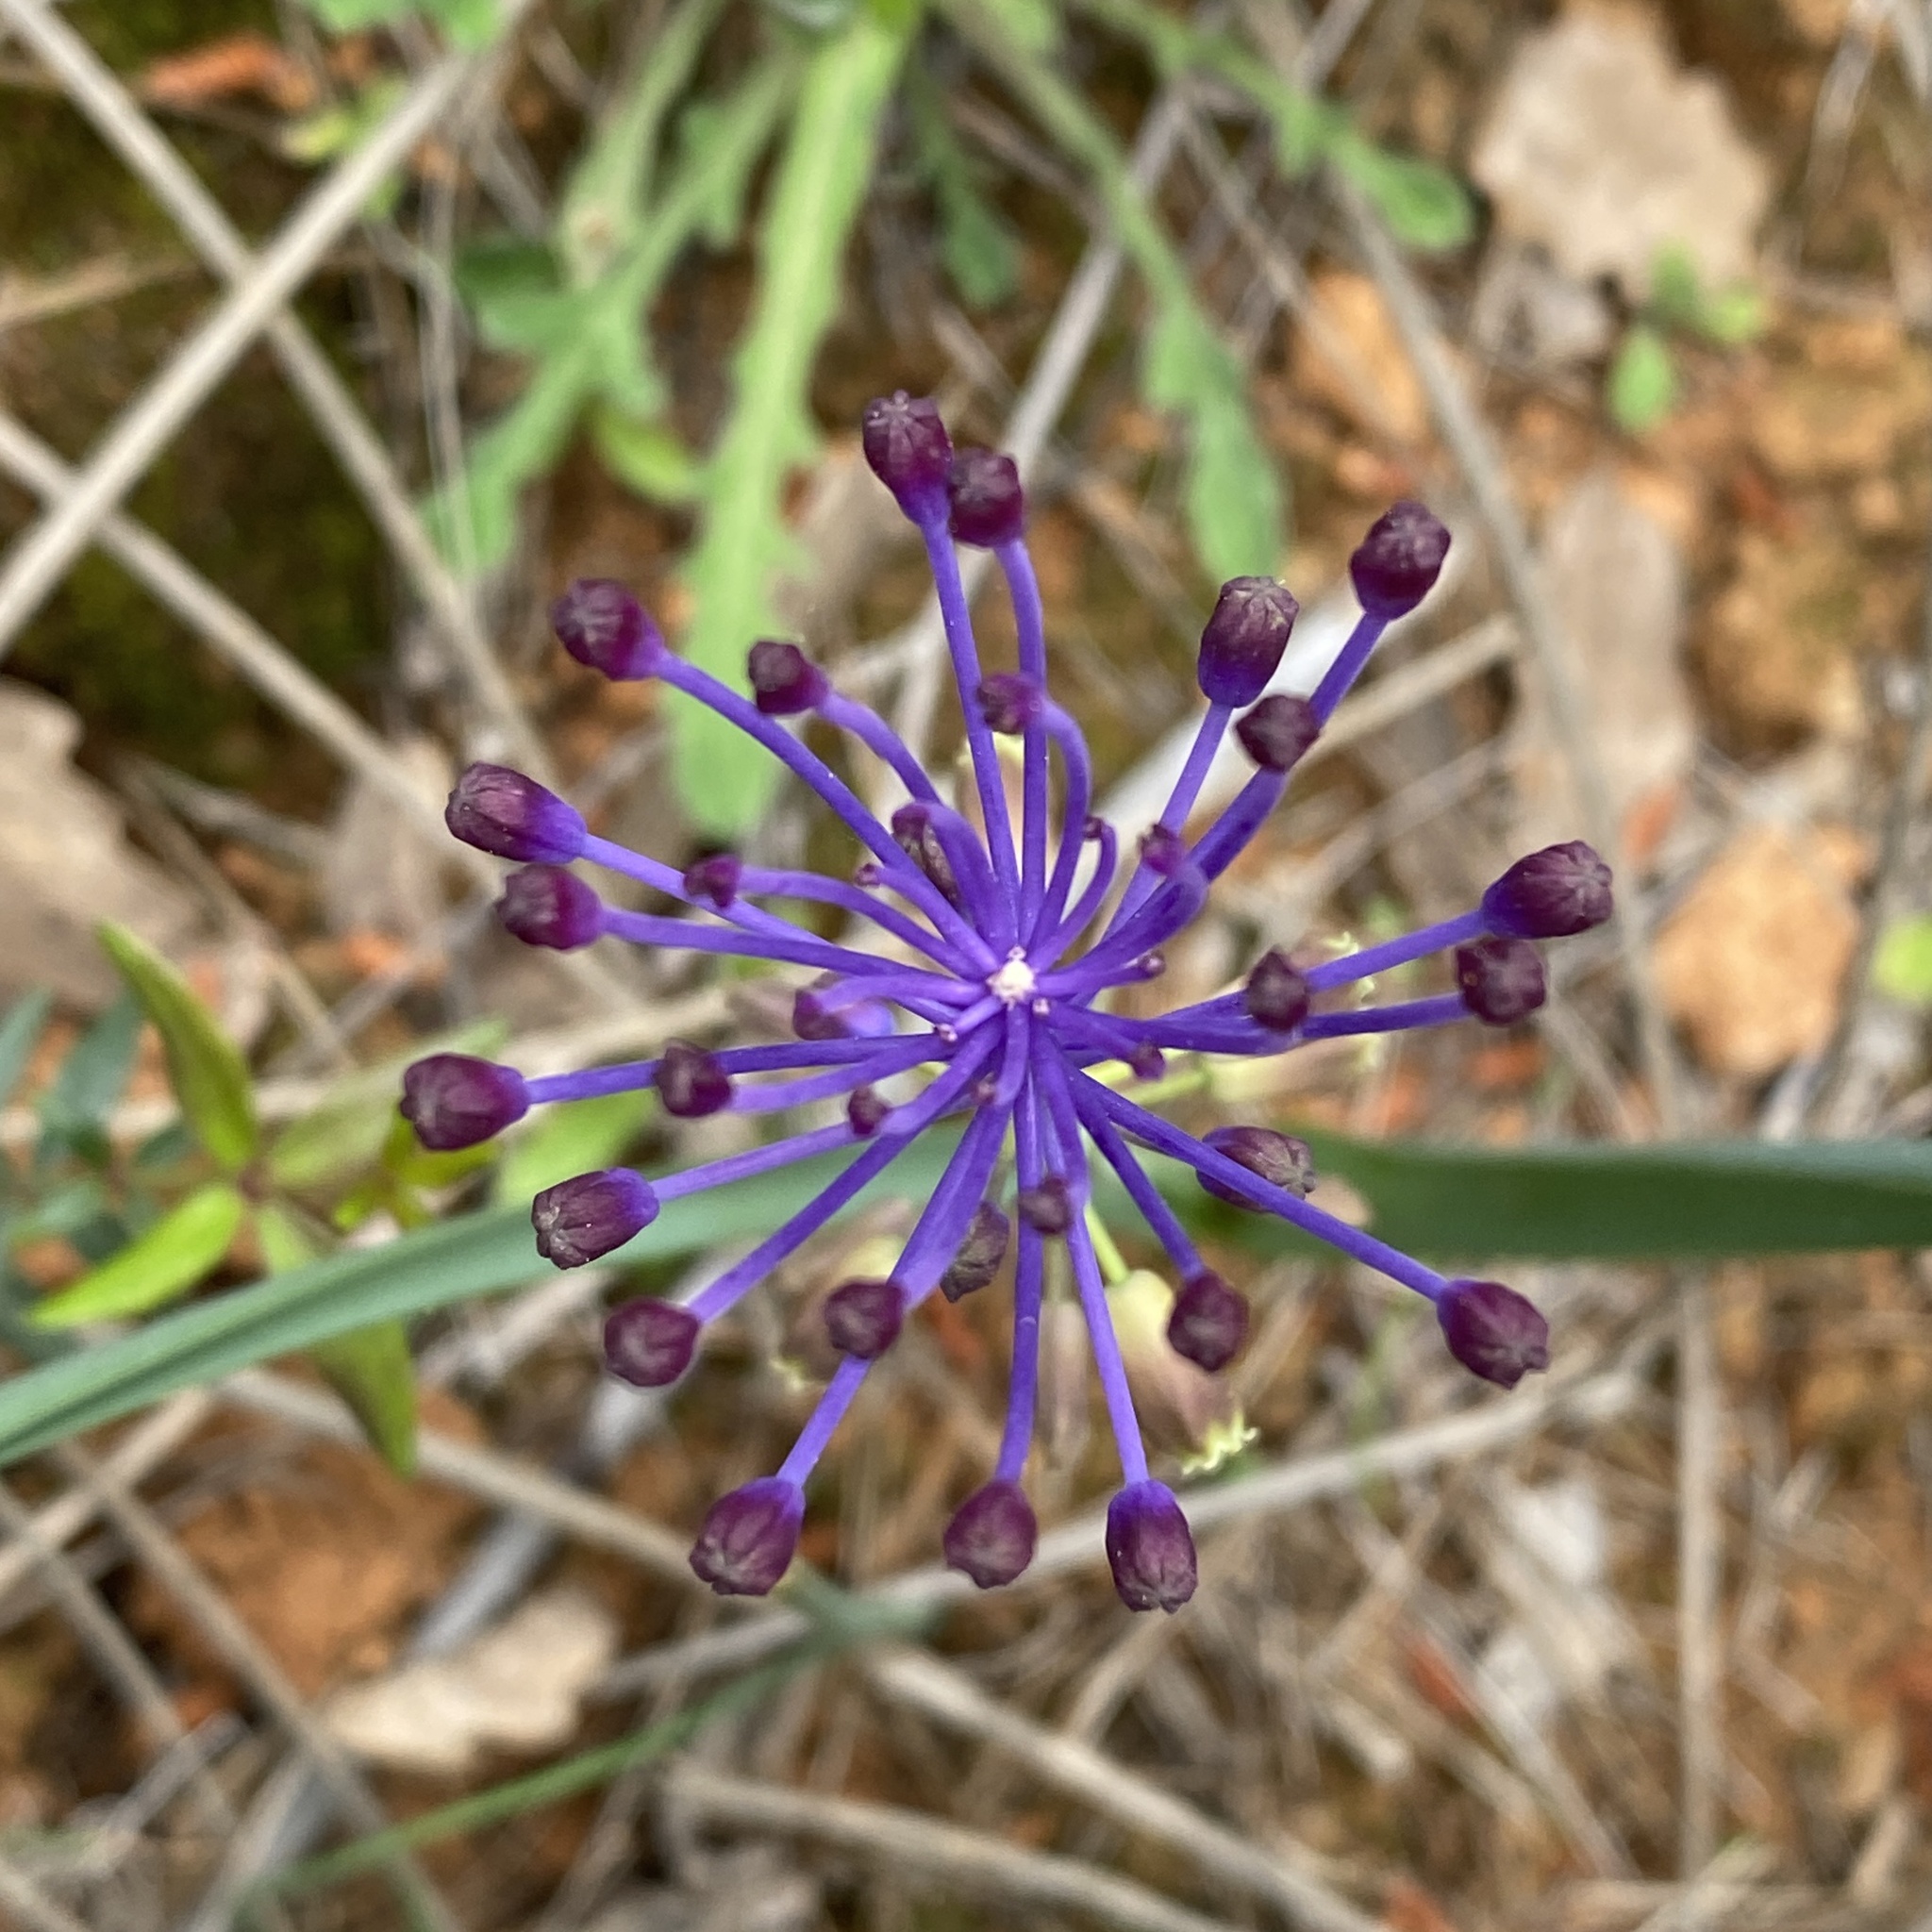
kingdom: Plantae
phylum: Tracheophyta
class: Liliopsida
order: Asparagales
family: Asparagaceae
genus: Muscari
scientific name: Muscari comosum
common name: Tassel hyacinth
